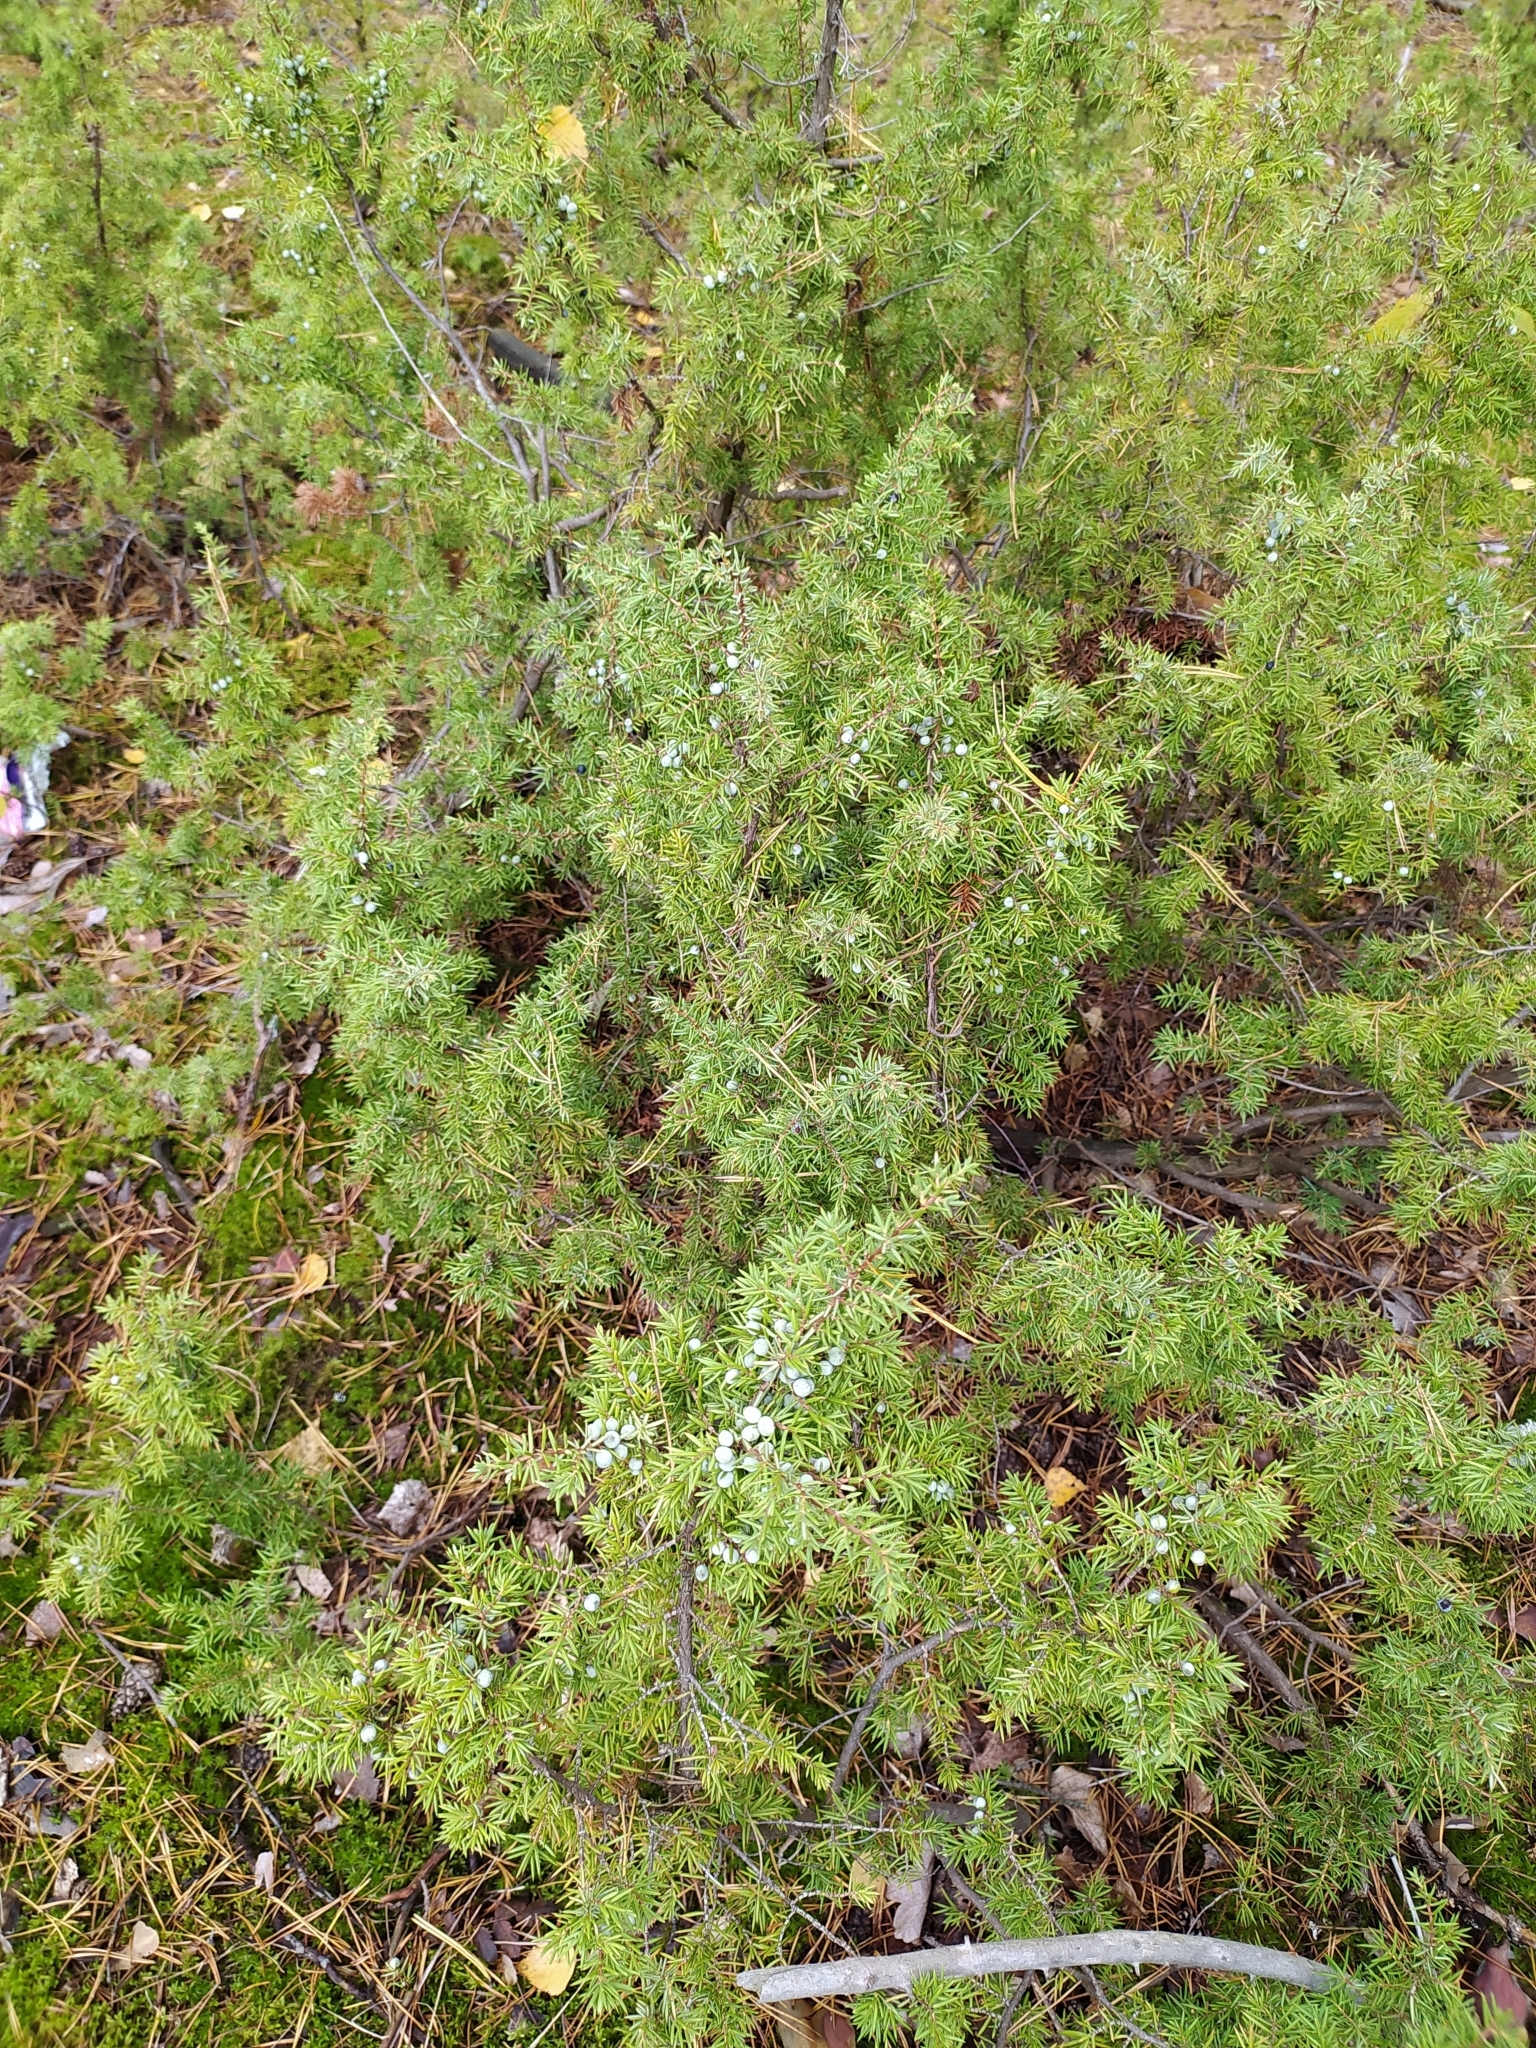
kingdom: Plantae
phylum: Tracheophyta
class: Pinopsida
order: Pinales
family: Cupressaceae
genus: Juniperus
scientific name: Juniperus communis
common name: Common juniper
